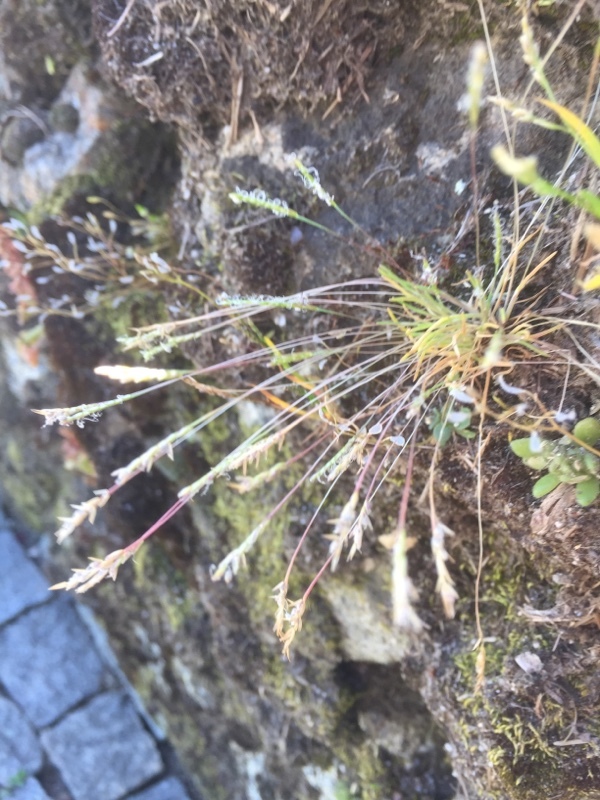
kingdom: Plantae
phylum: Tracheophyta
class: Liliopsida
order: Poales
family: Poaceae
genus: Mibora
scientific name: Mibora minima
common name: Early sand-grass
